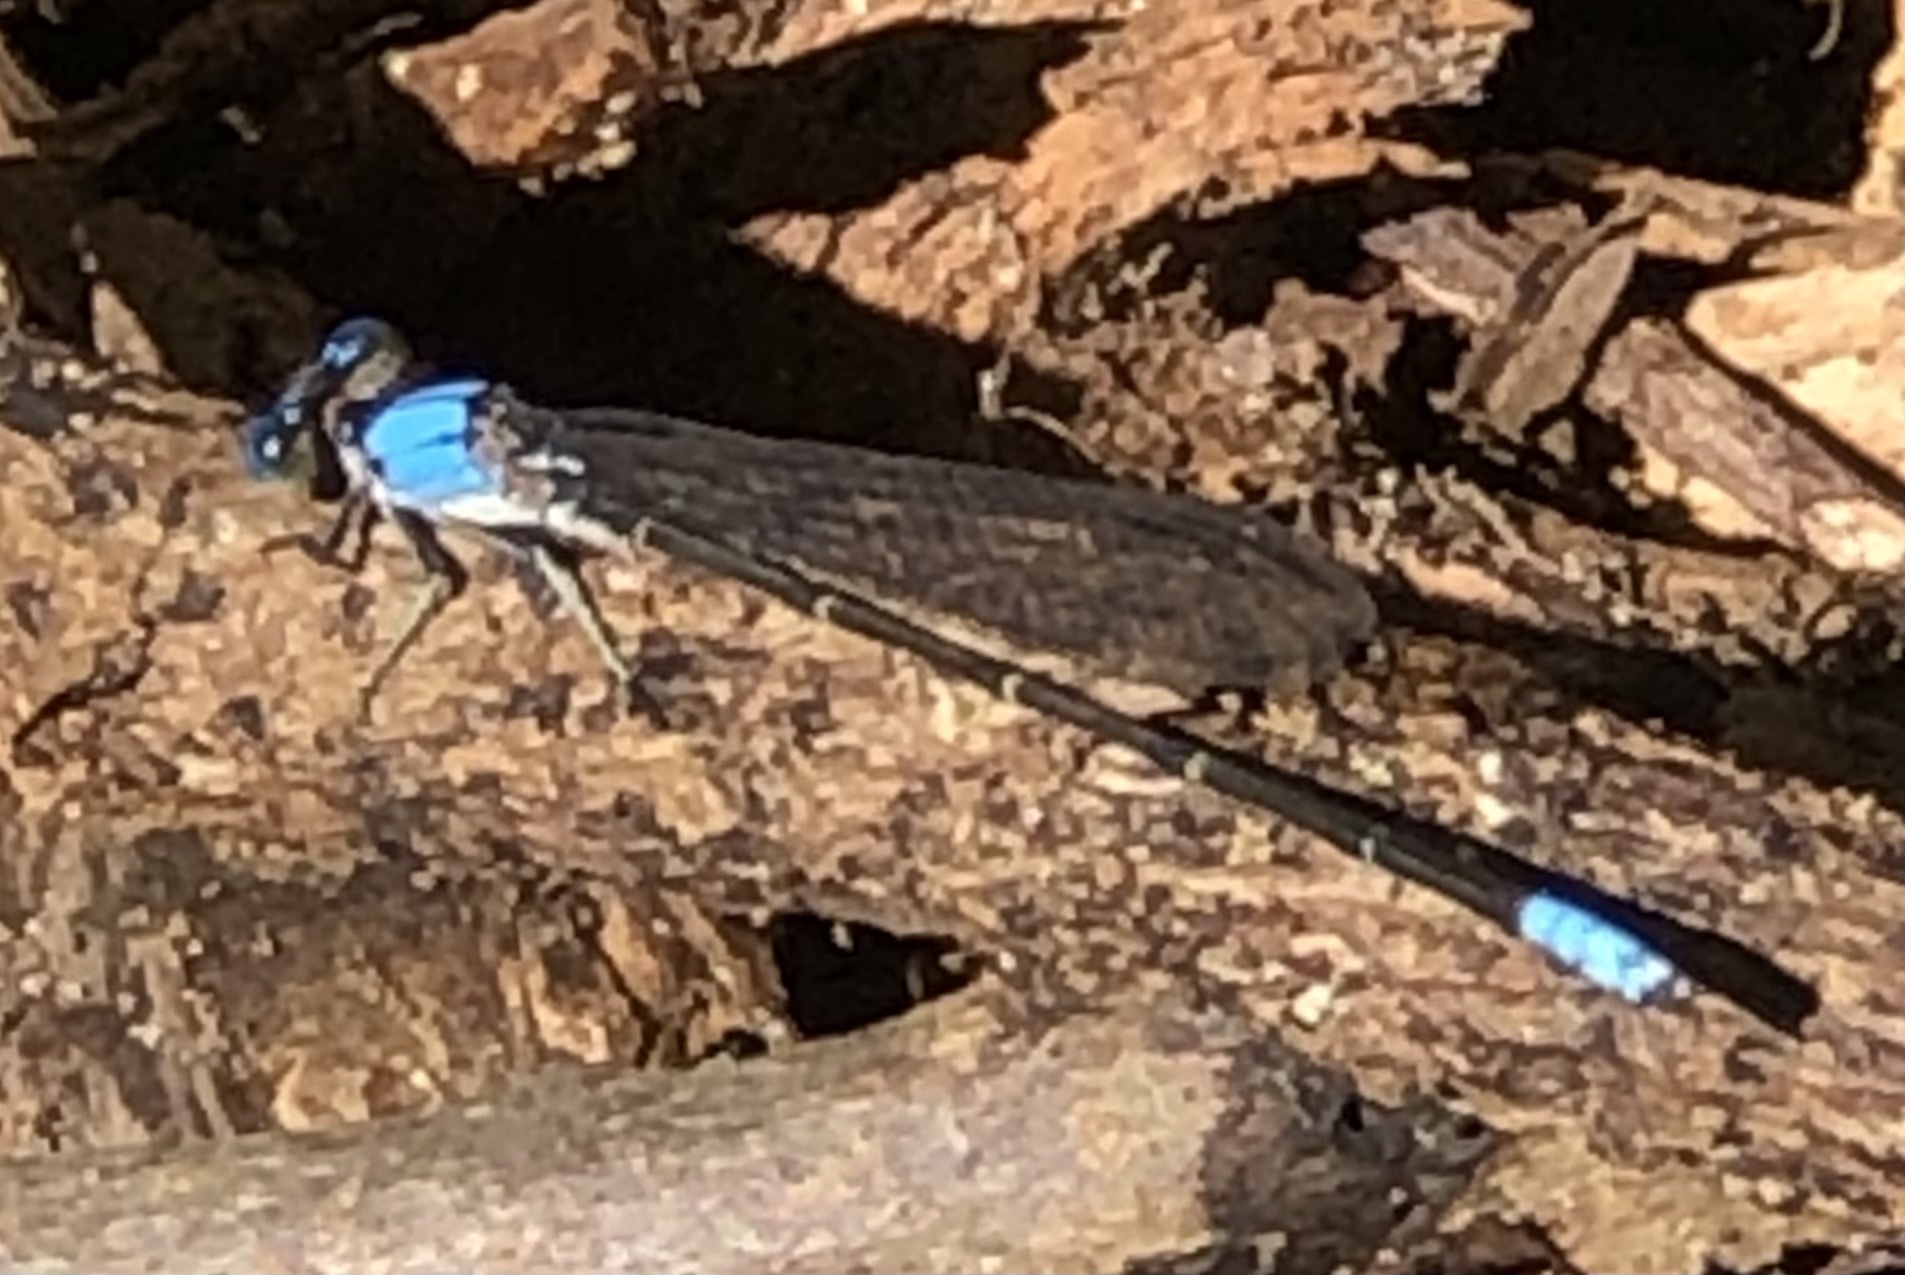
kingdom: Animalia
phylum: Arthropoda
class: Insecta
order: Odonata
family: Coenagrionidae
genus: Argia
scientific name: Argia apicalis
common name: Blue-fronted dancer
